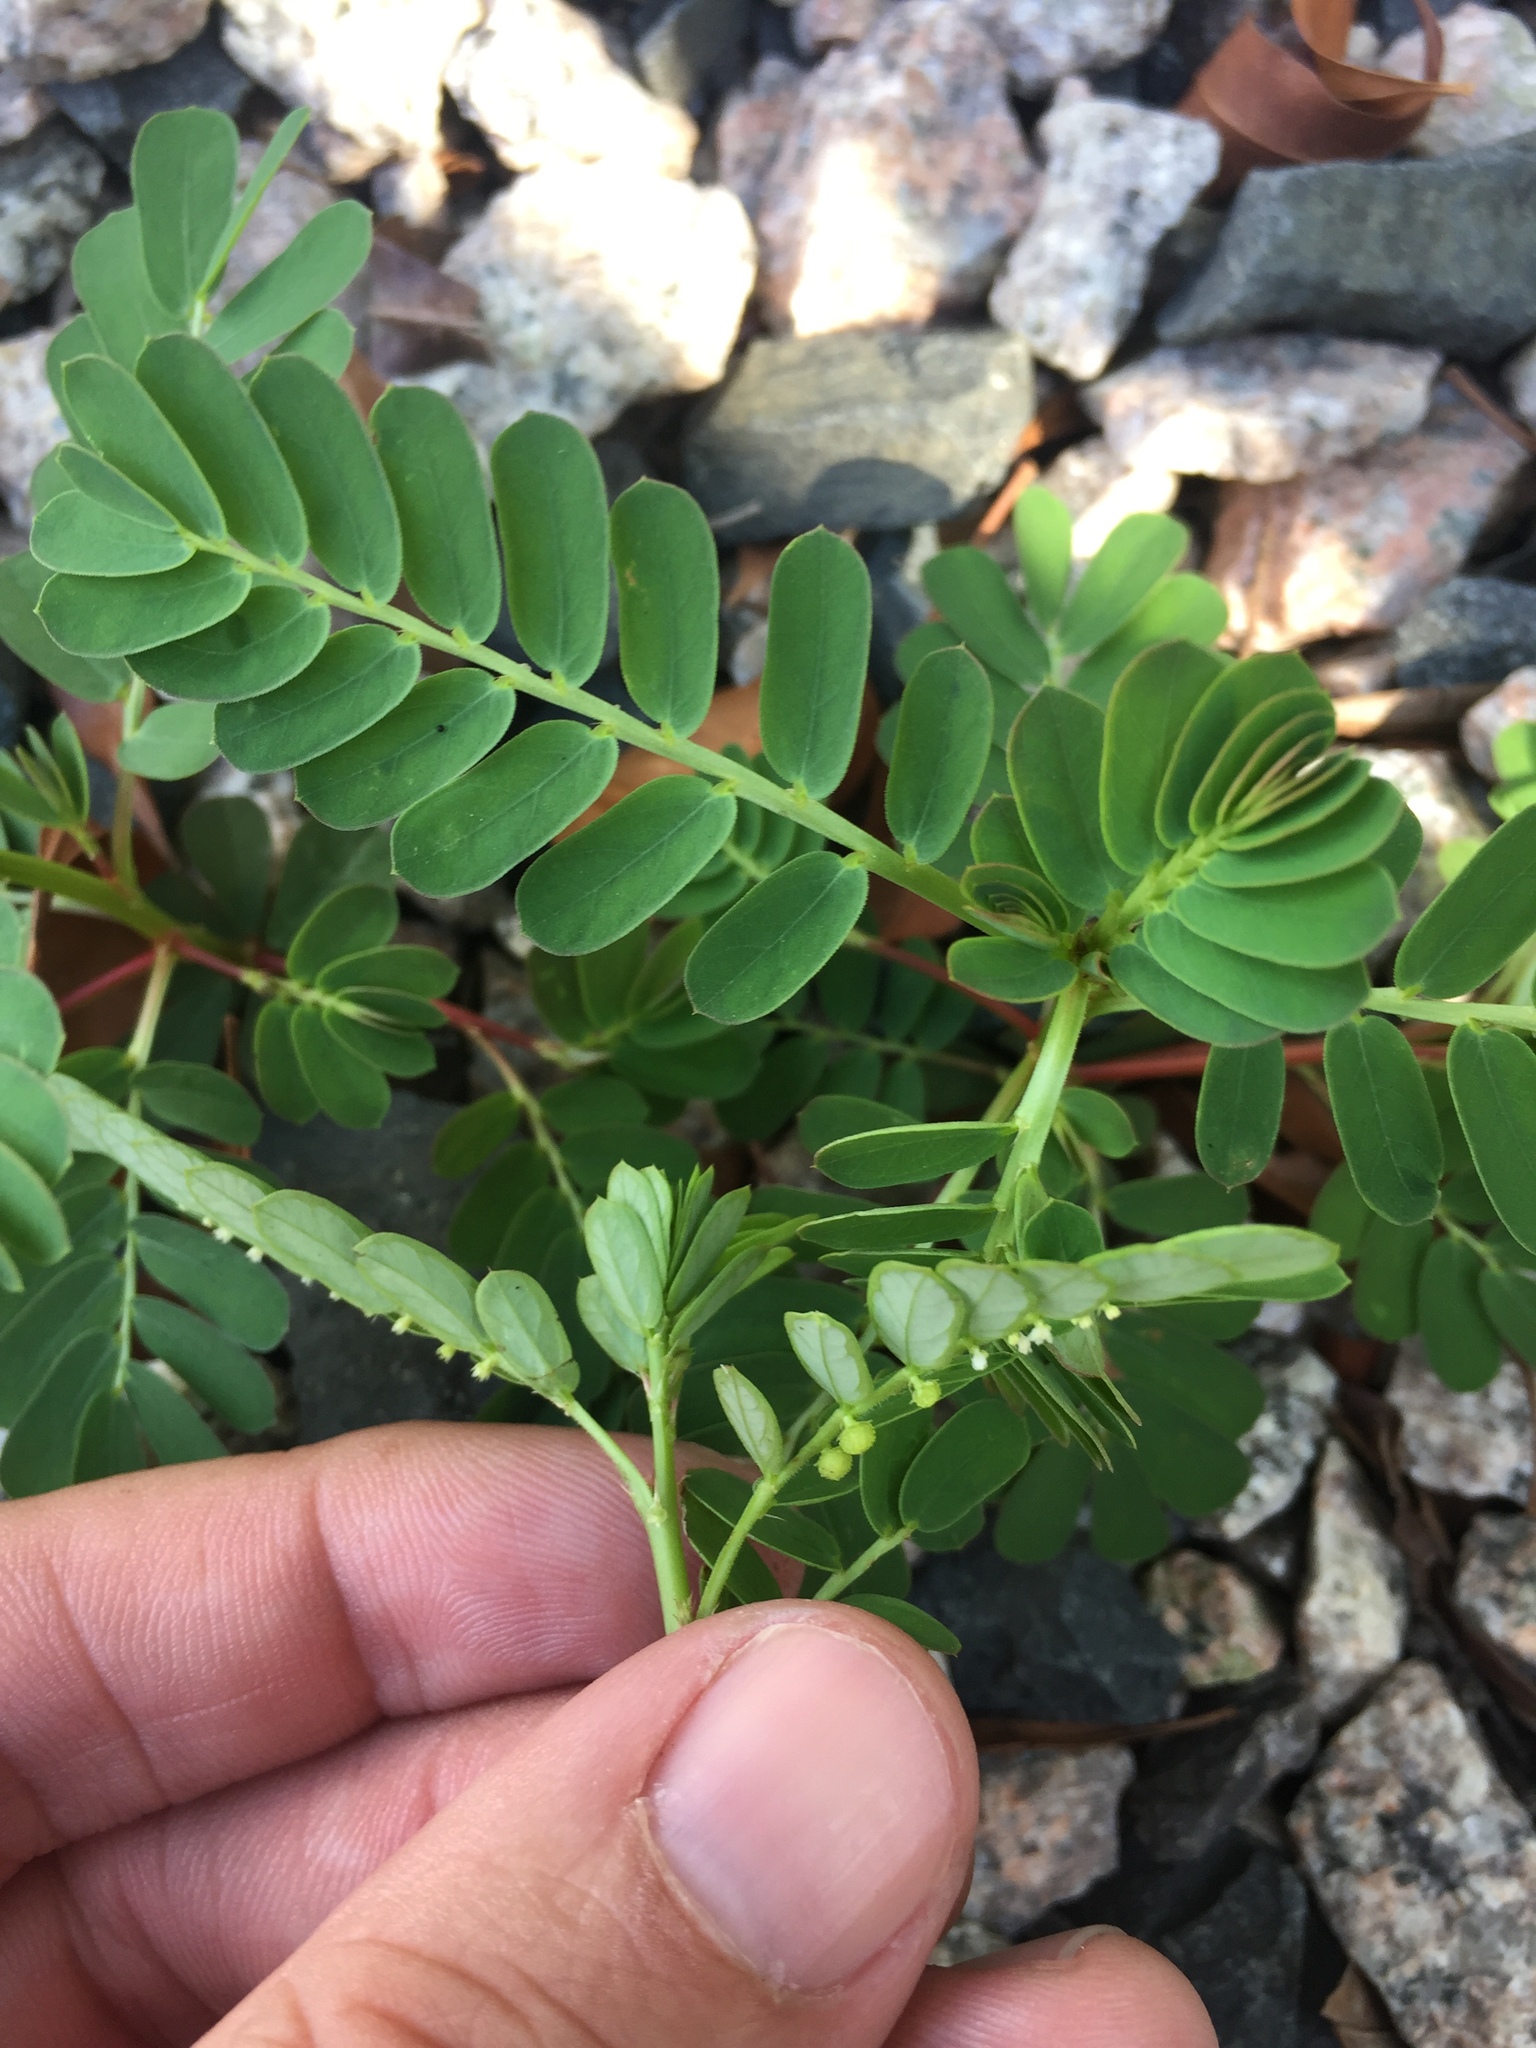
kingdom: Plantae
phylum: Tracheophyta
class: Magnoliopsida
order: Malpighiales
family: Phyllanthaceae
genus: Phyllanthus
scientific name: Phyllanthus urinaria
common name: Chamber bitter
